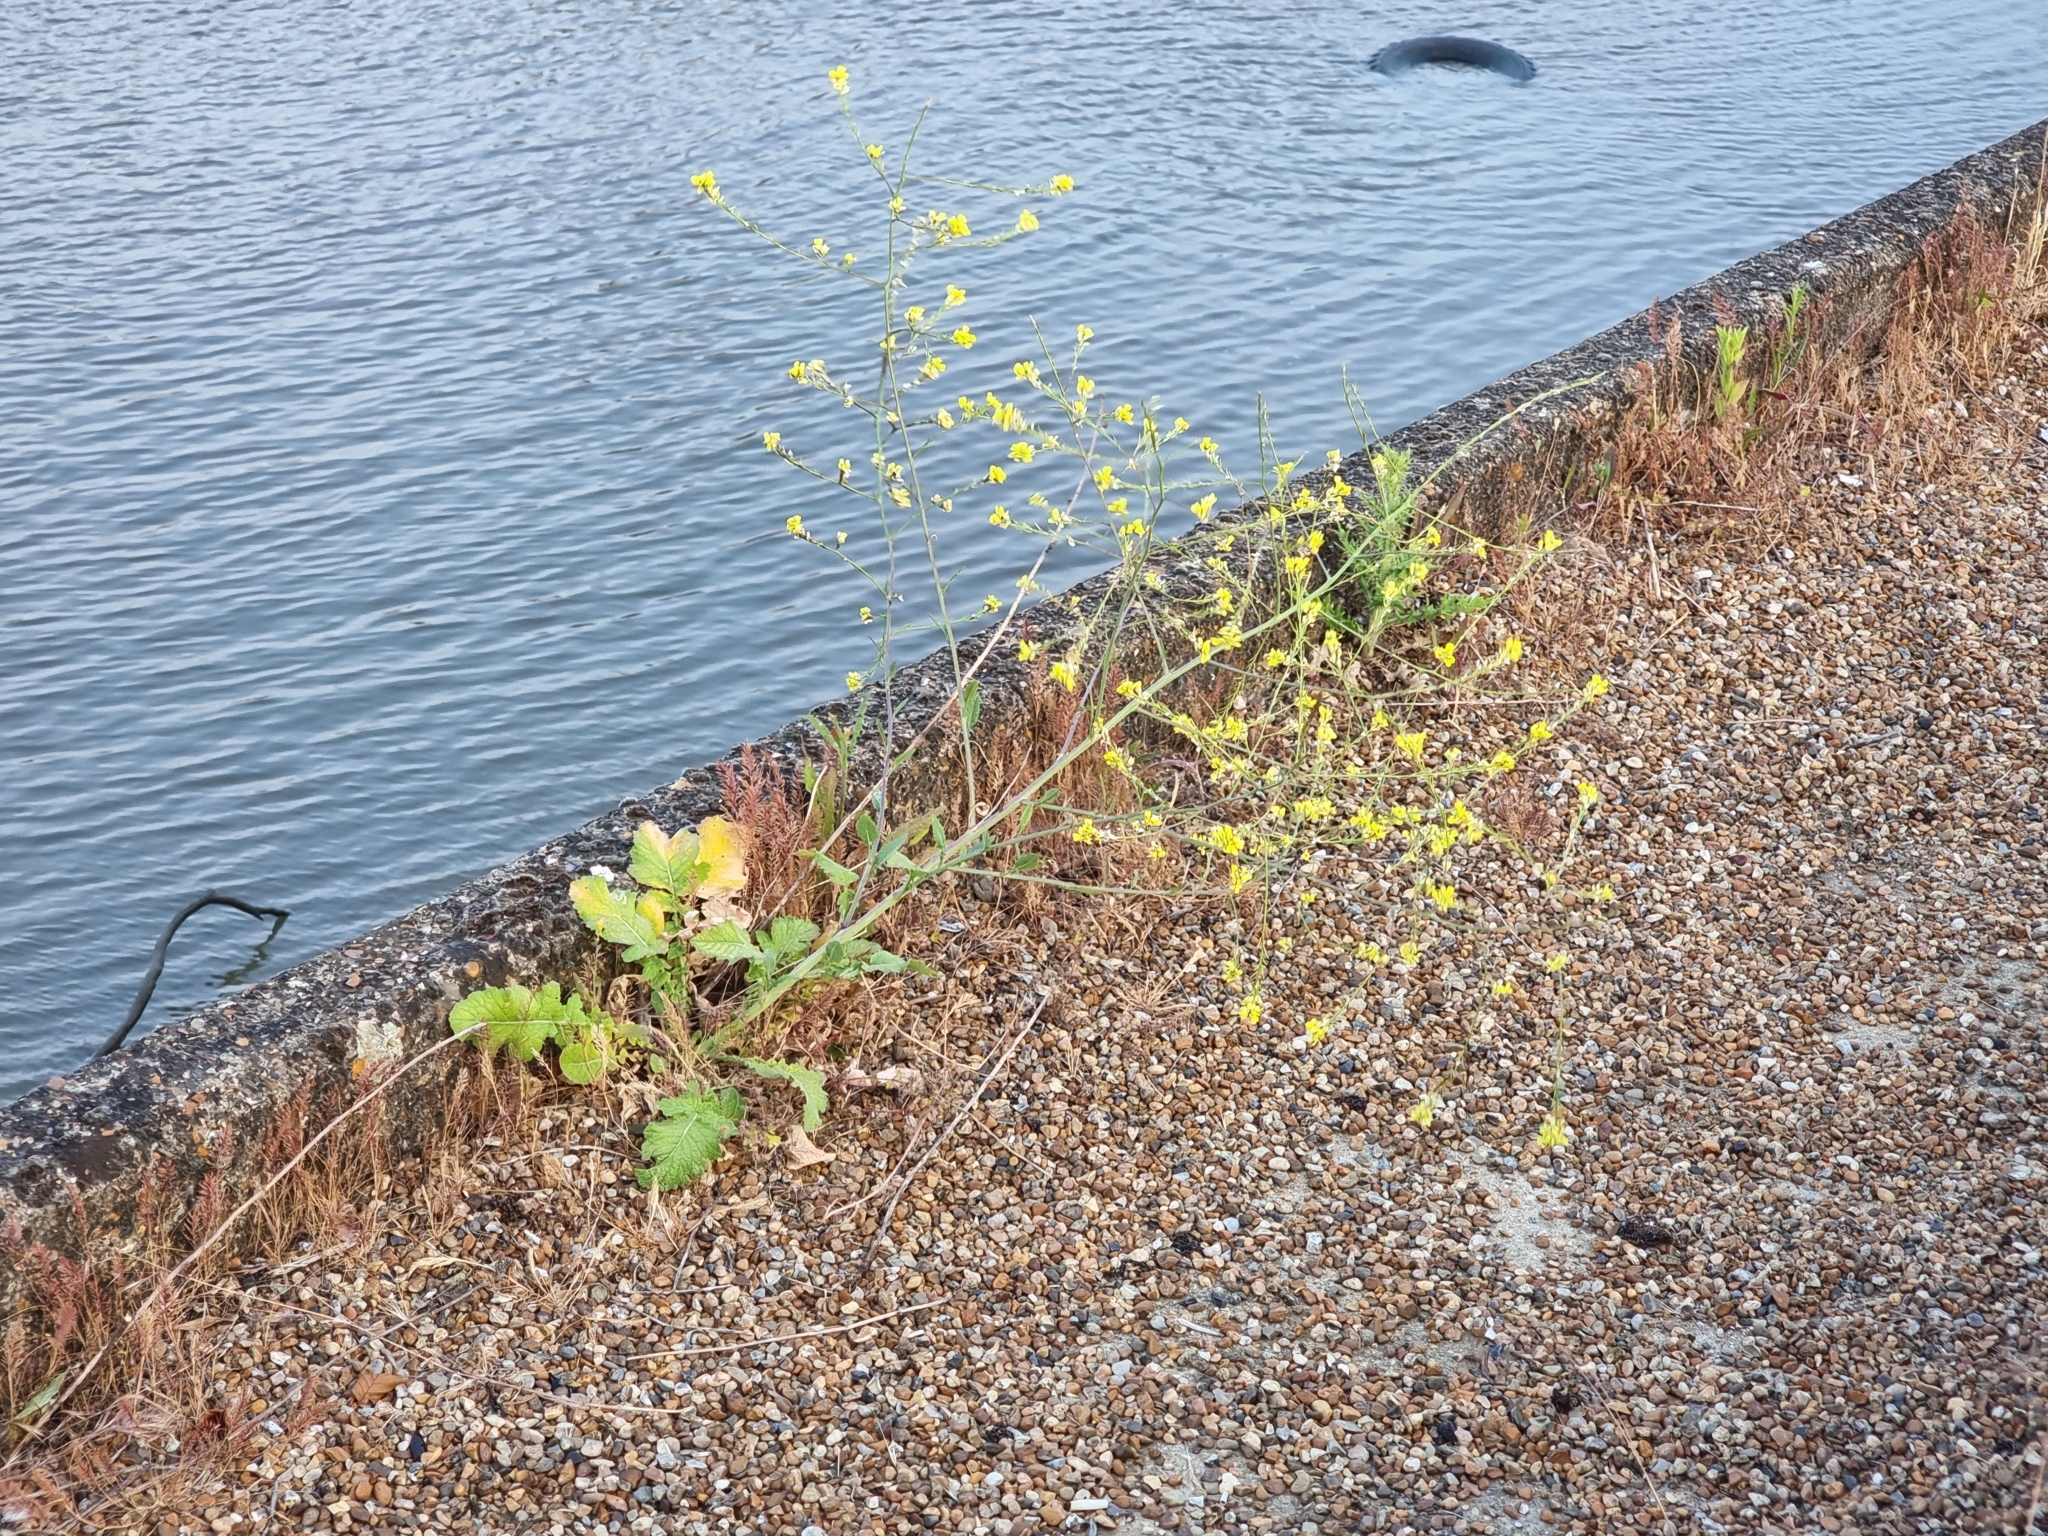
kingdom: Plantae
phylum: Tracheophyta
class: Magnoliopsida
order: Brassicales
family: Brassicaceae
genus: Hirschfeldia
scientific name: Hirschfeldia incana
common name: Hoary mustard
